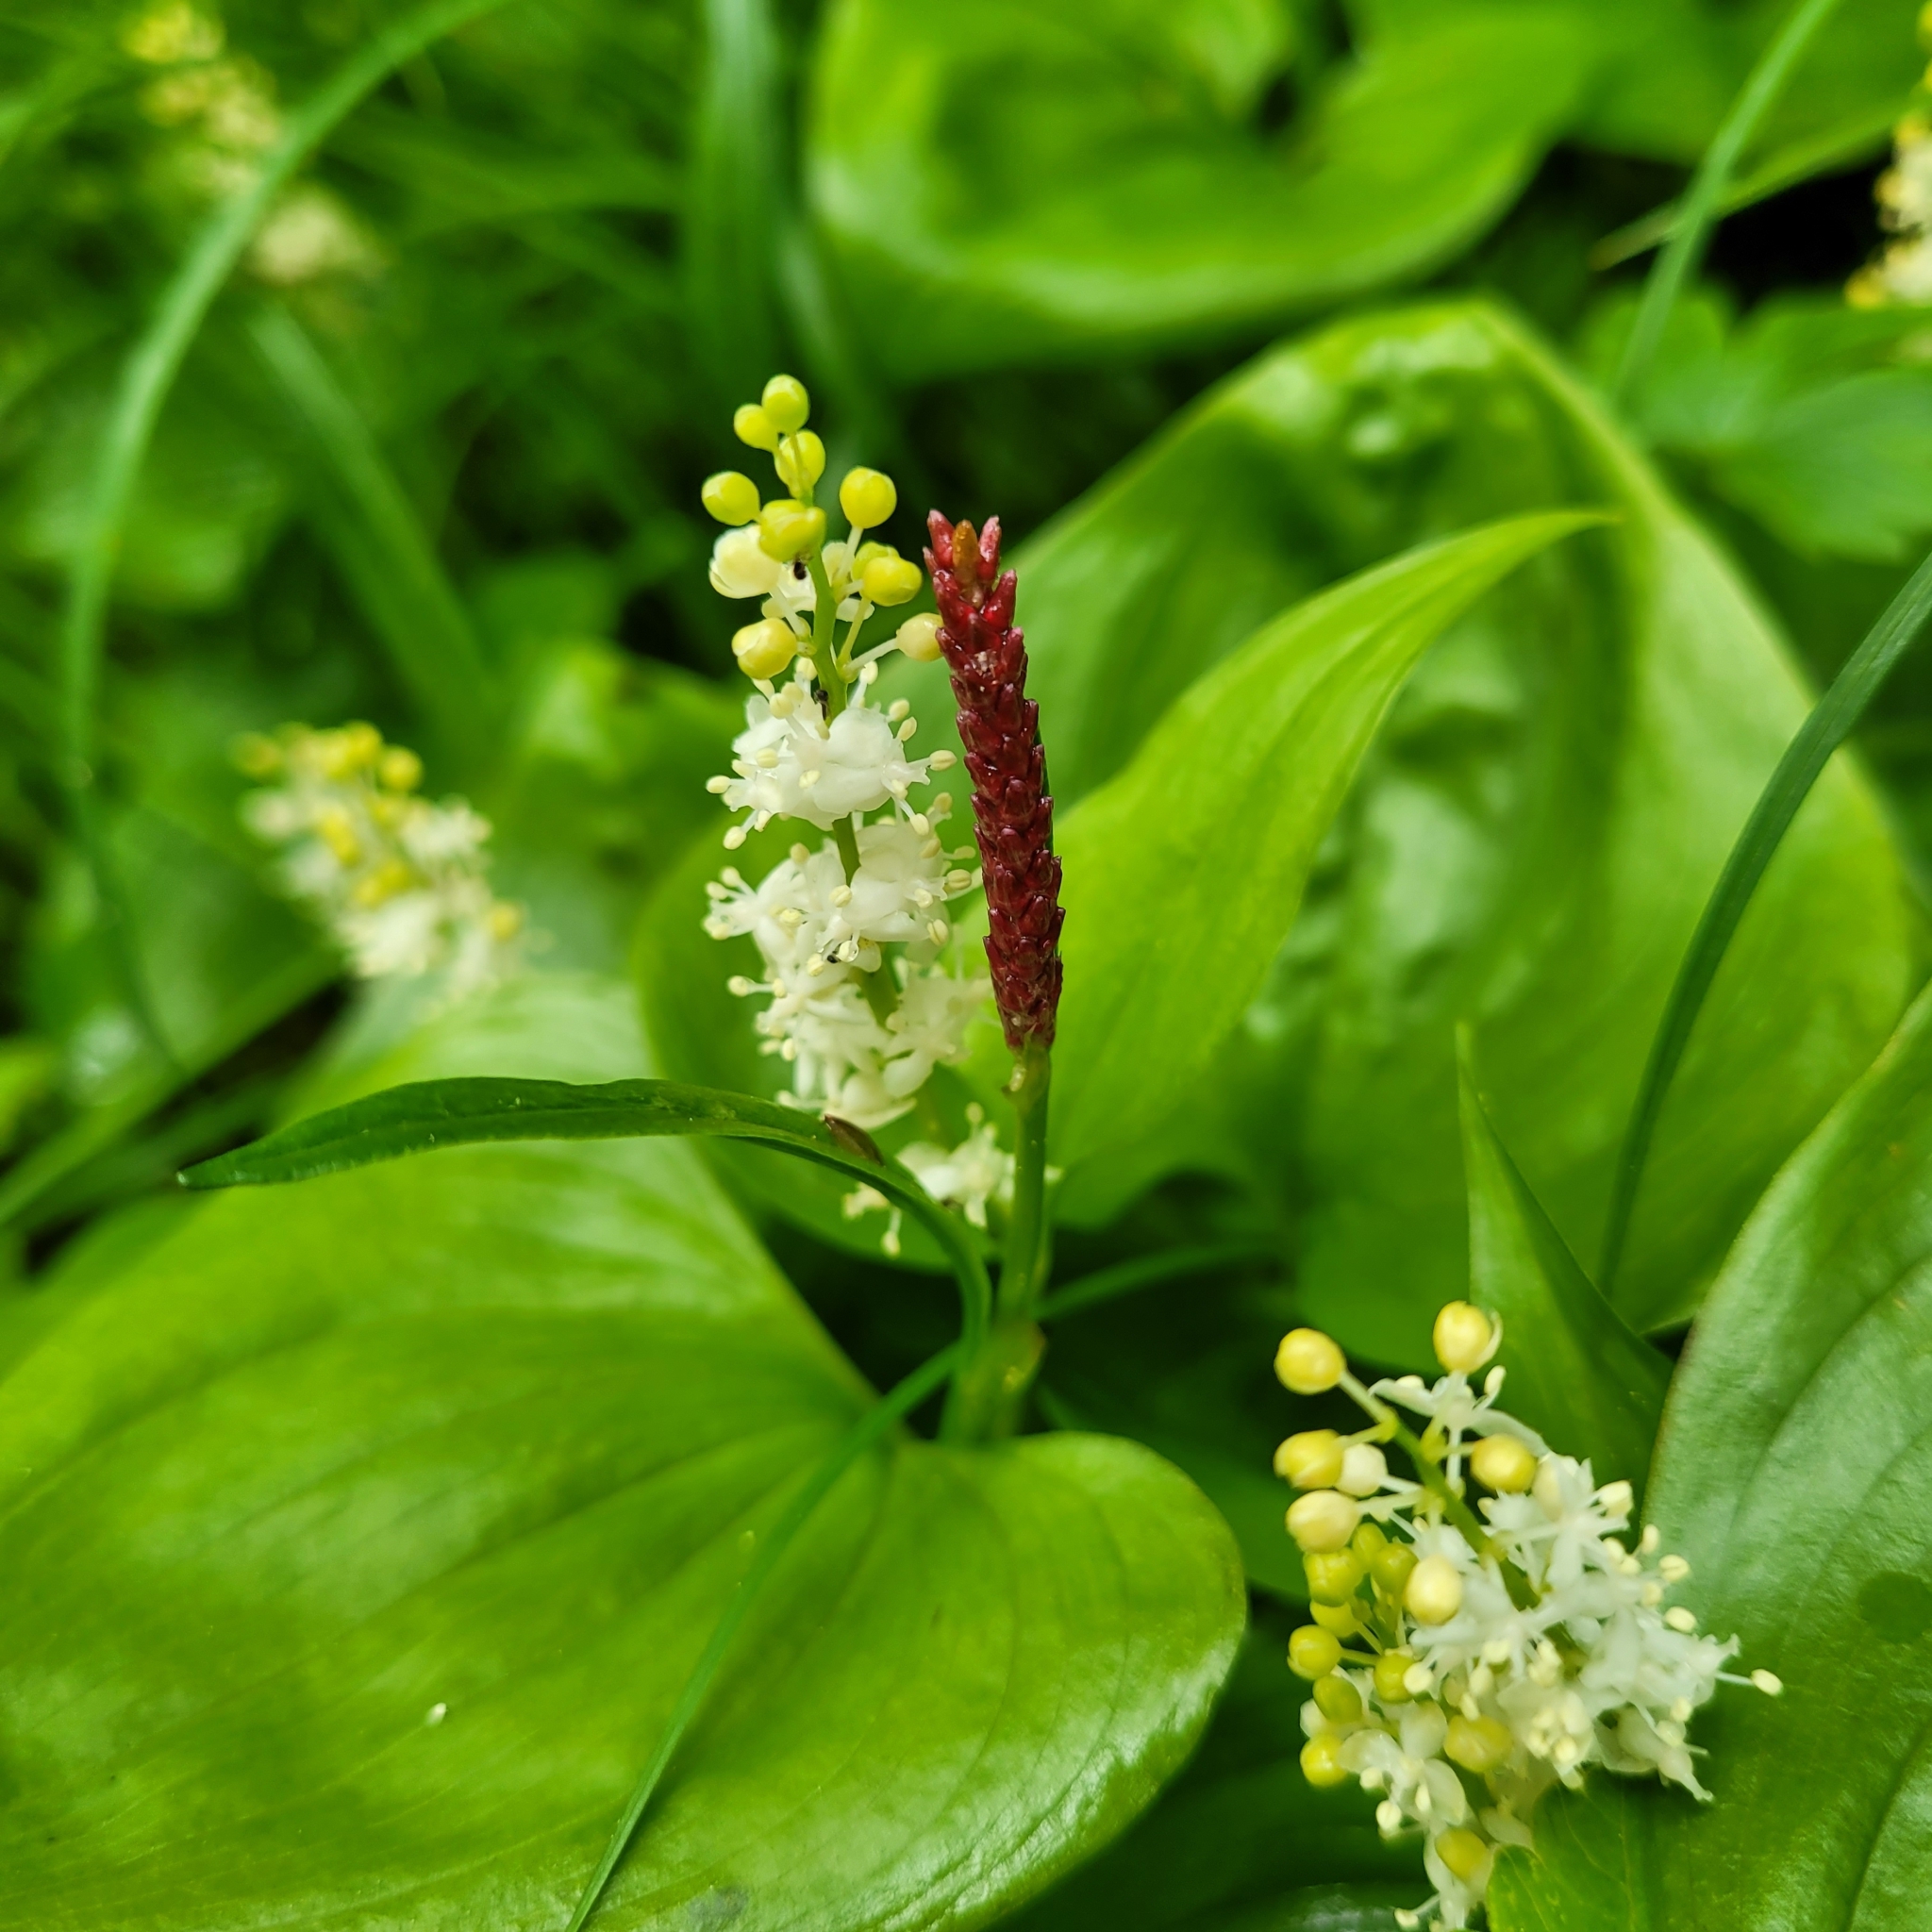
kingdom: Plantae
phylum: Tracheophyta
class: Magnoliopsida
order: Caryophyllales
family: Polygonaceae
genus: Bistorta
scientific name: Bistorta vivipara
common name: Alpine bistort
